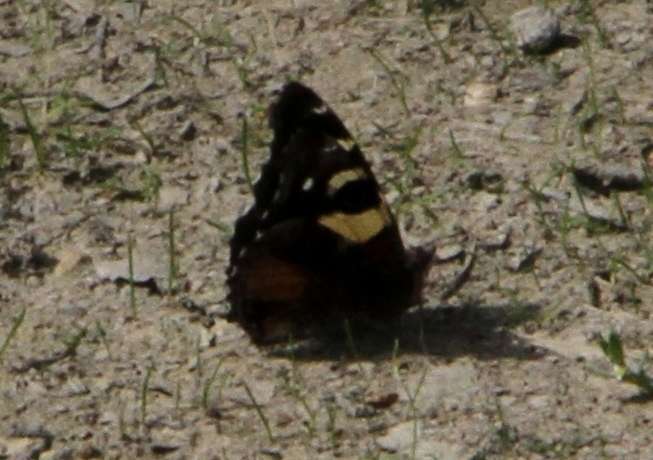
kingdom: Animalia
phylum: Arthropoda
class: Insecta
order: Lepidoptera
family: Nymphalidae
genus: Vanessa
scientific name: Vanessa itea
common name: Yellow admiral
